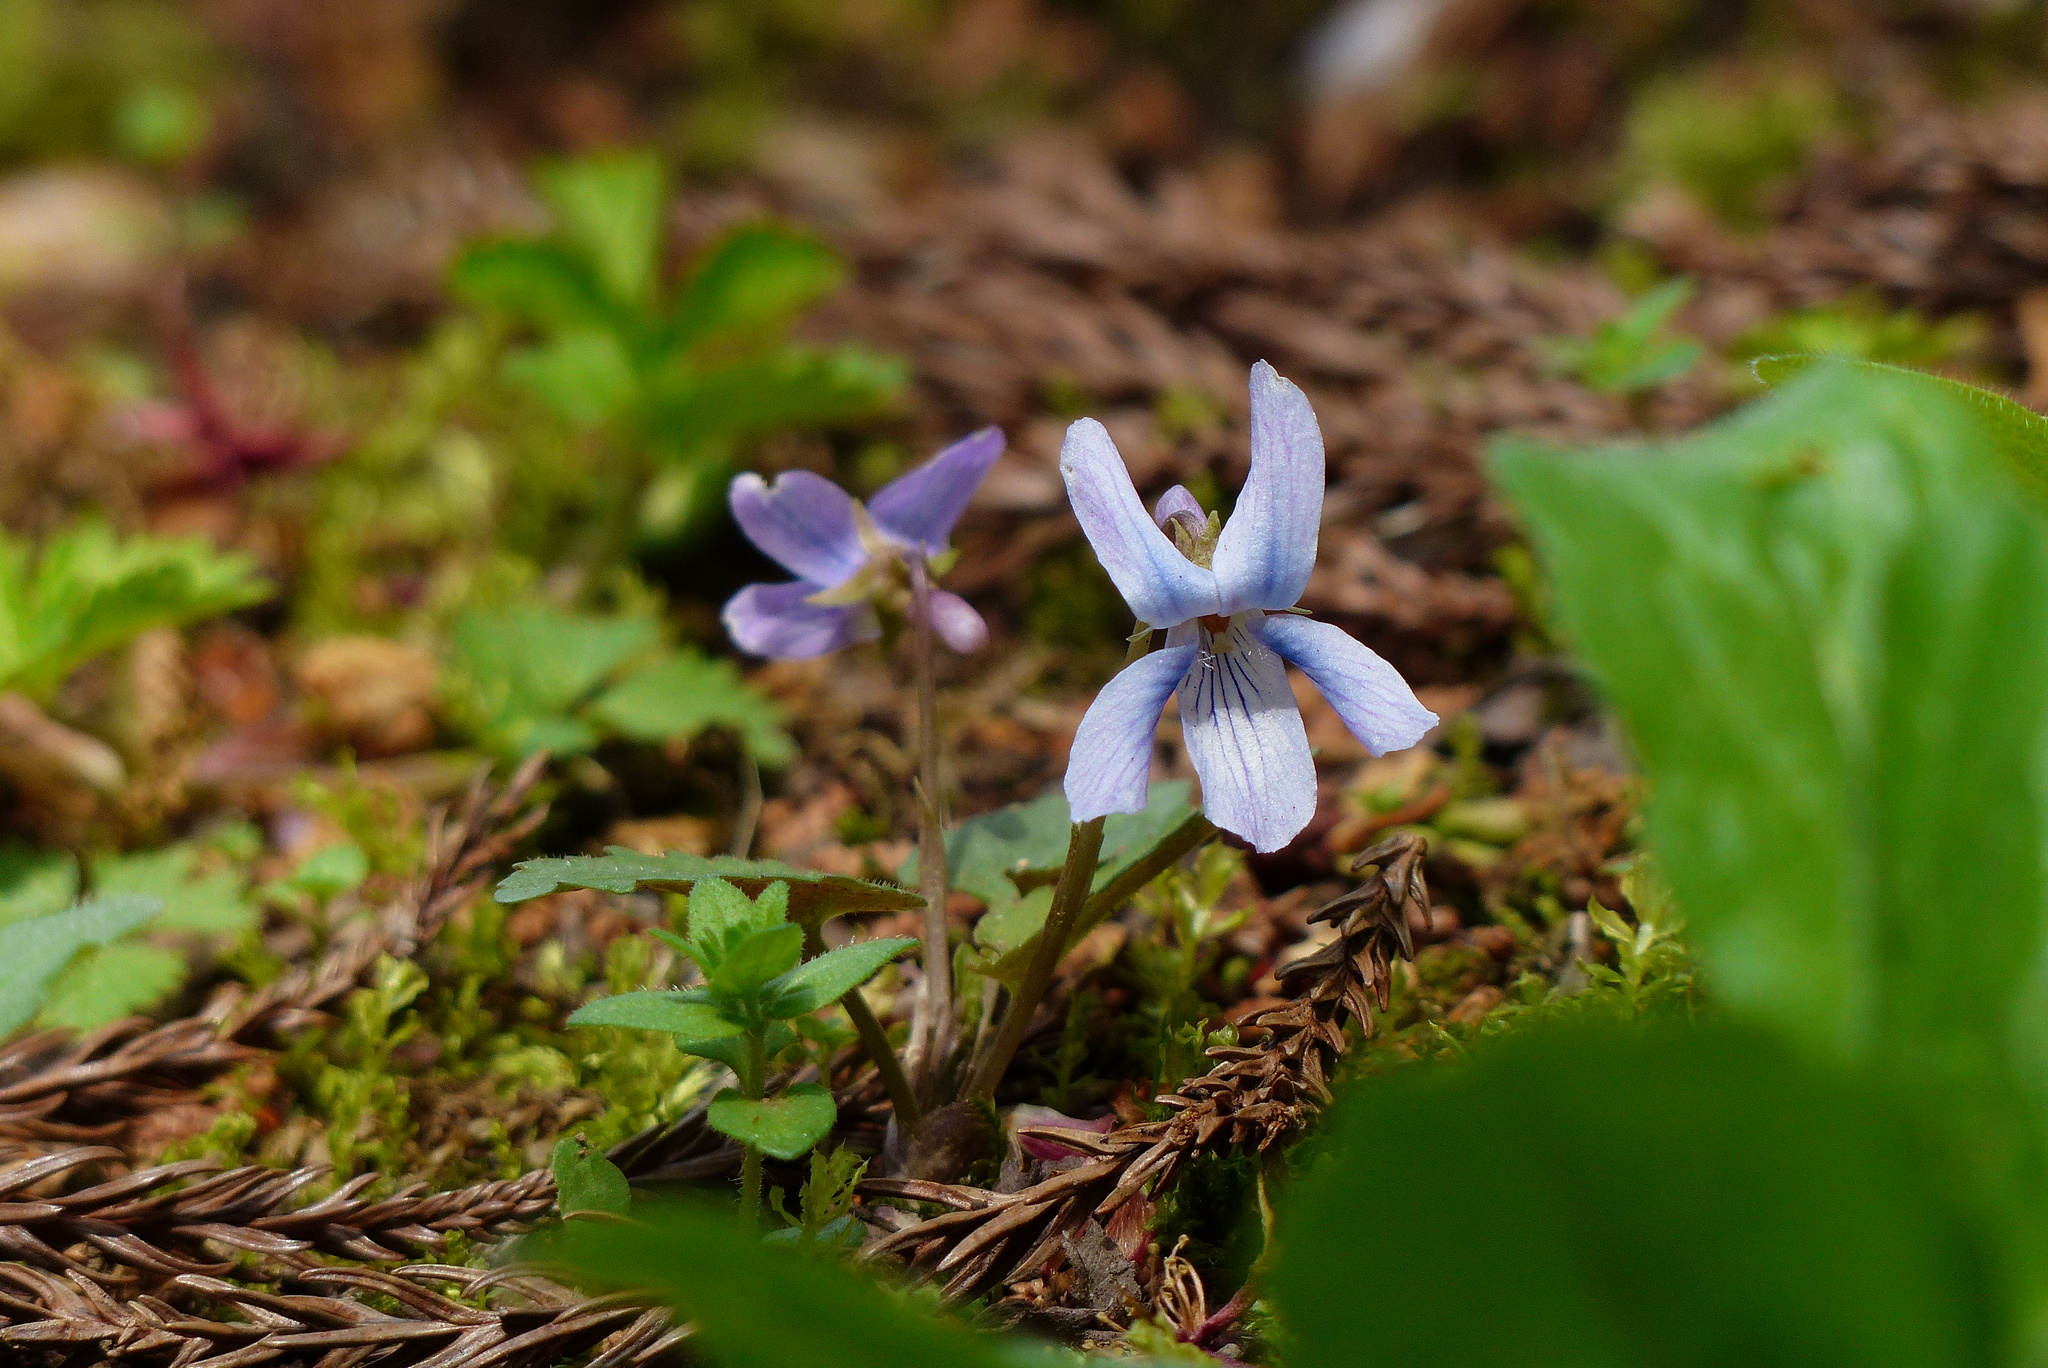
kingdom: Plantae
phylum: Tracheophyta
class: Magnoliopsida
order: Malpighiales
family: Violaceae
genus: Viola
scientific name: Viola grypoceras
